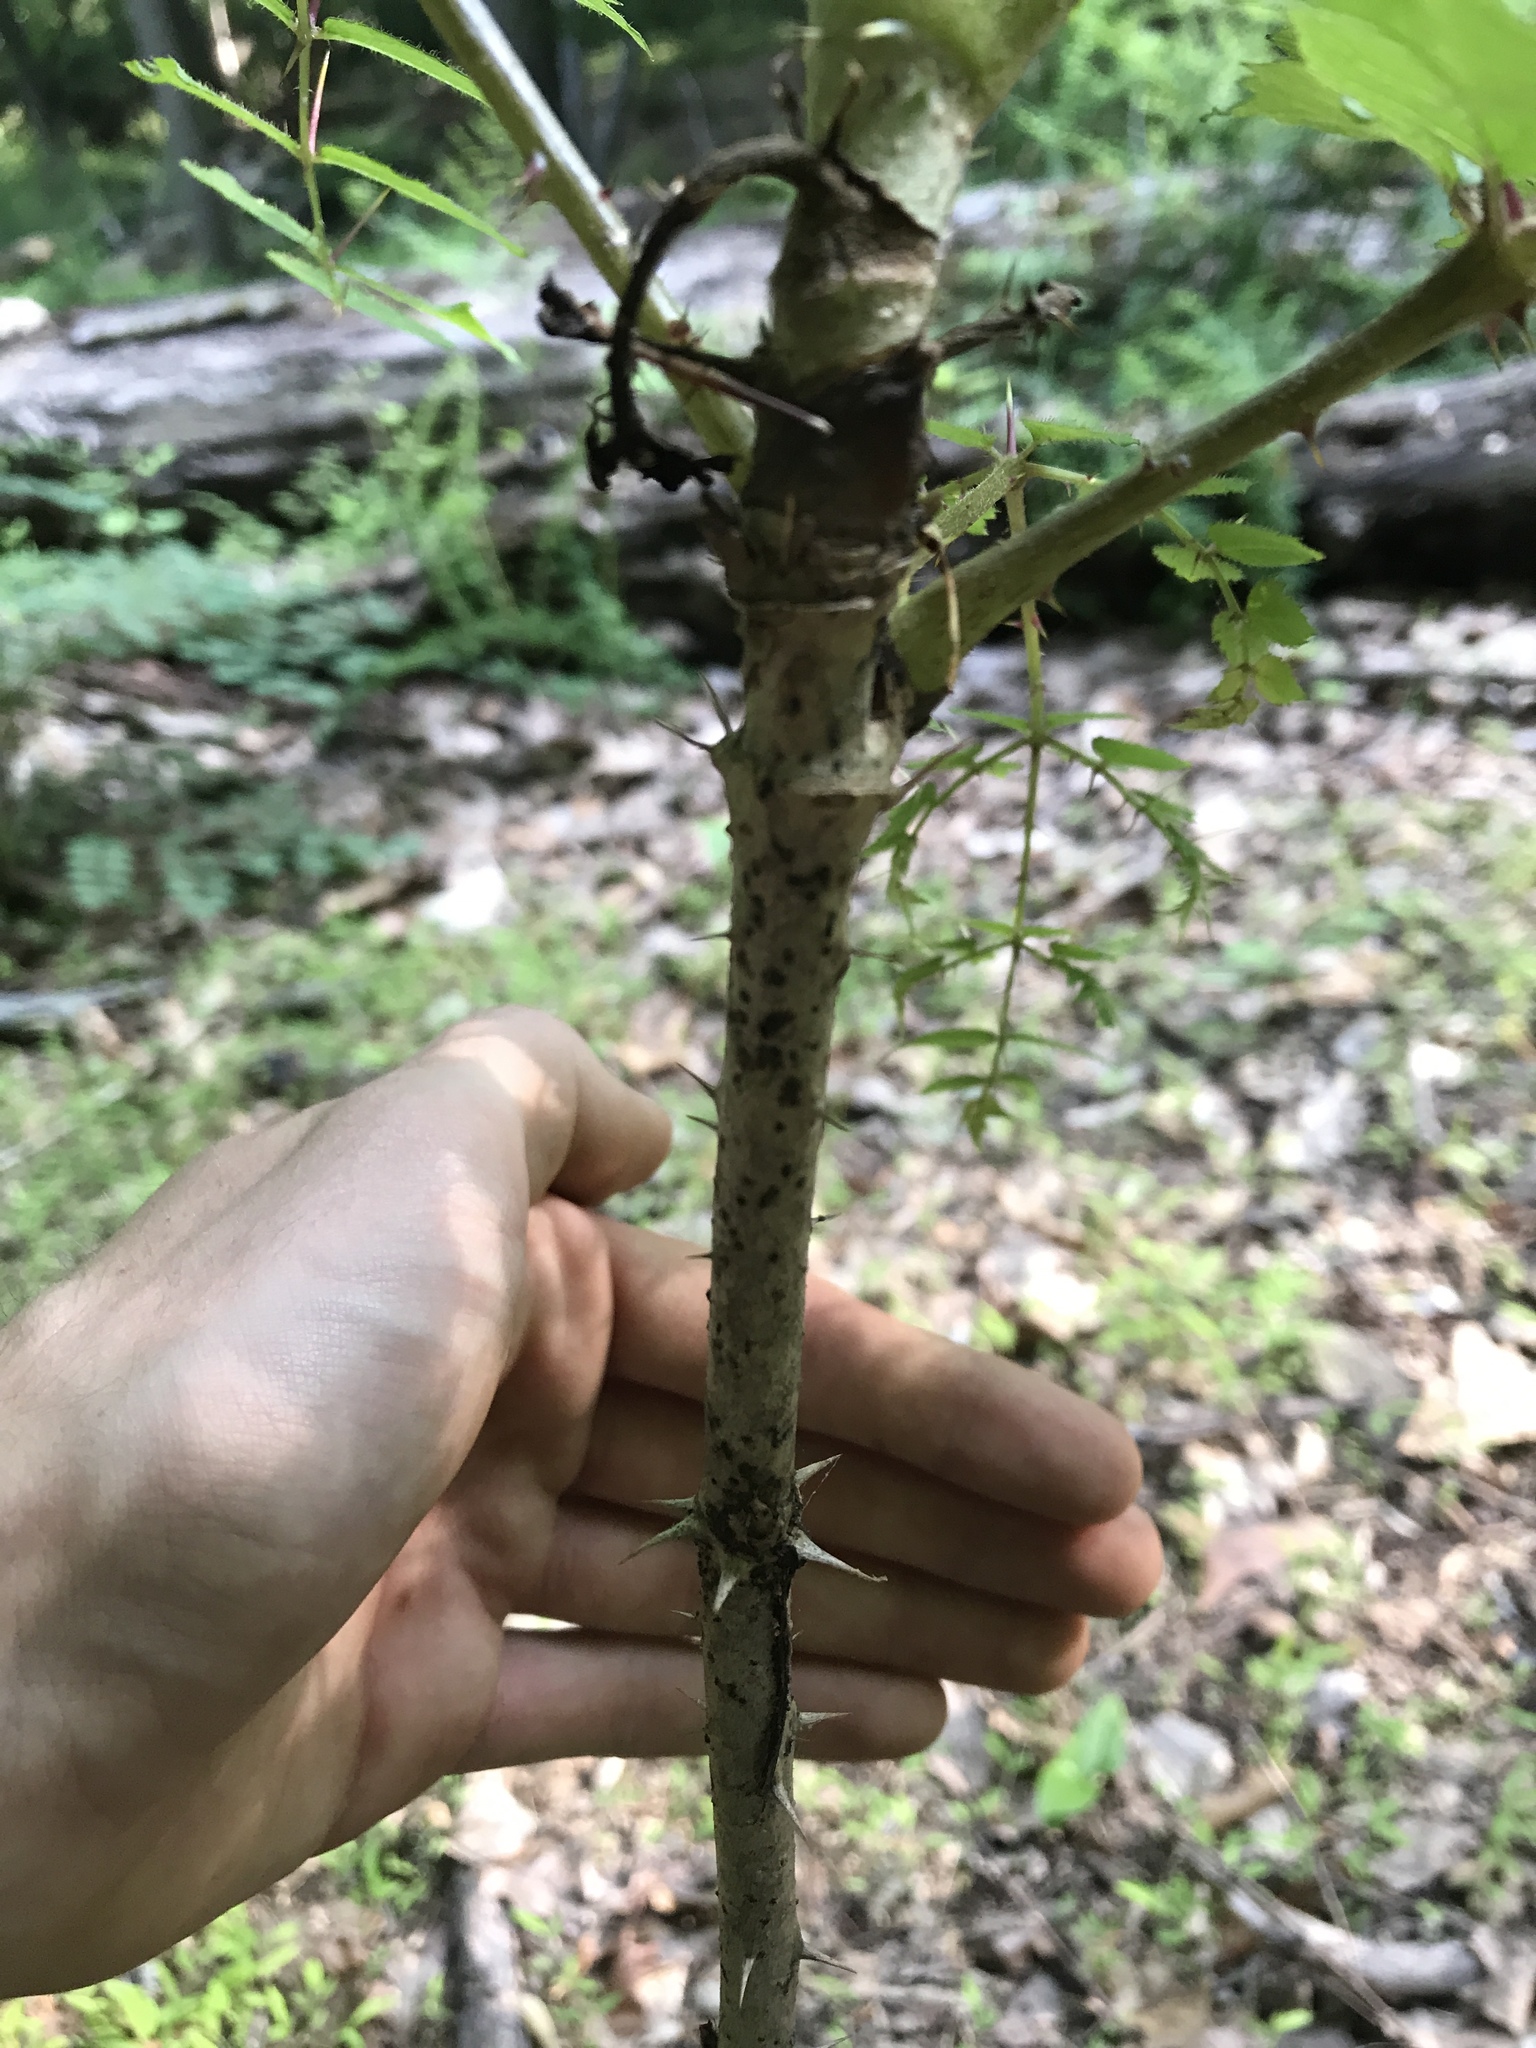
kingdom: Plantae
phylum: Tracheophyta
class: Magnoliopsida
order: Apiales
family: Araliaceae
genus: Aralia
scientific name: Aralia elata
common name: Japanese angelica-tree
